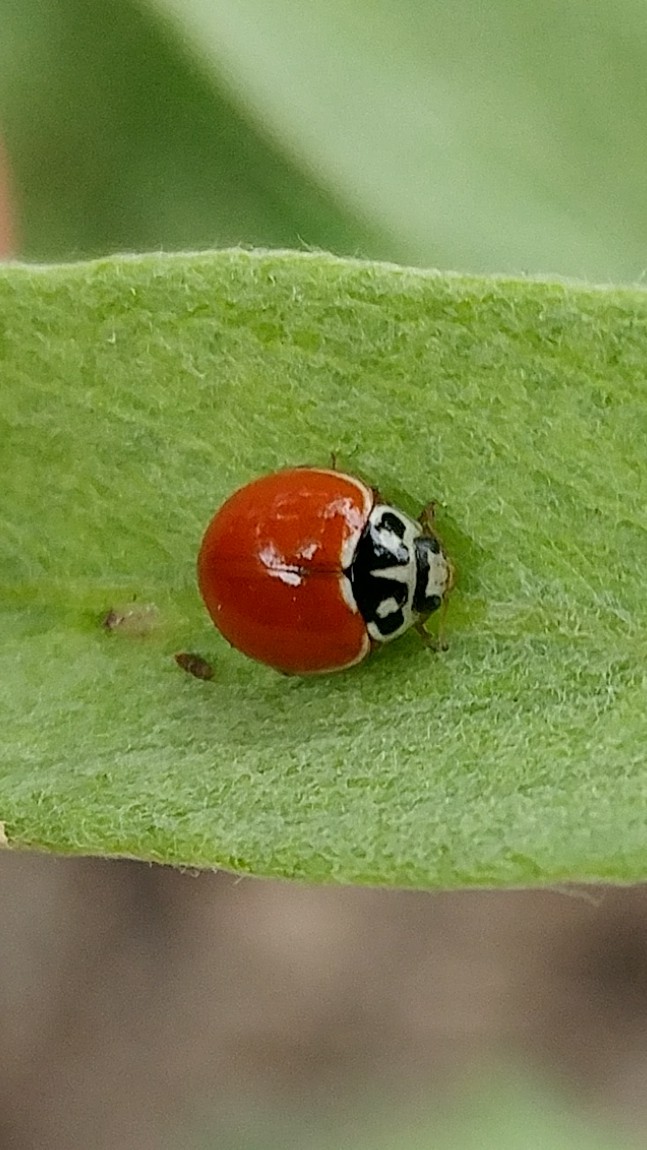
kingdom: Animalia
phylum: Arthropoda
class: Insecta
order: Coleoptera
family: Coccinellidae
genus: Cycloneda
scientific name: Cycloneda sanguinea
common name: Ladybird beetle
